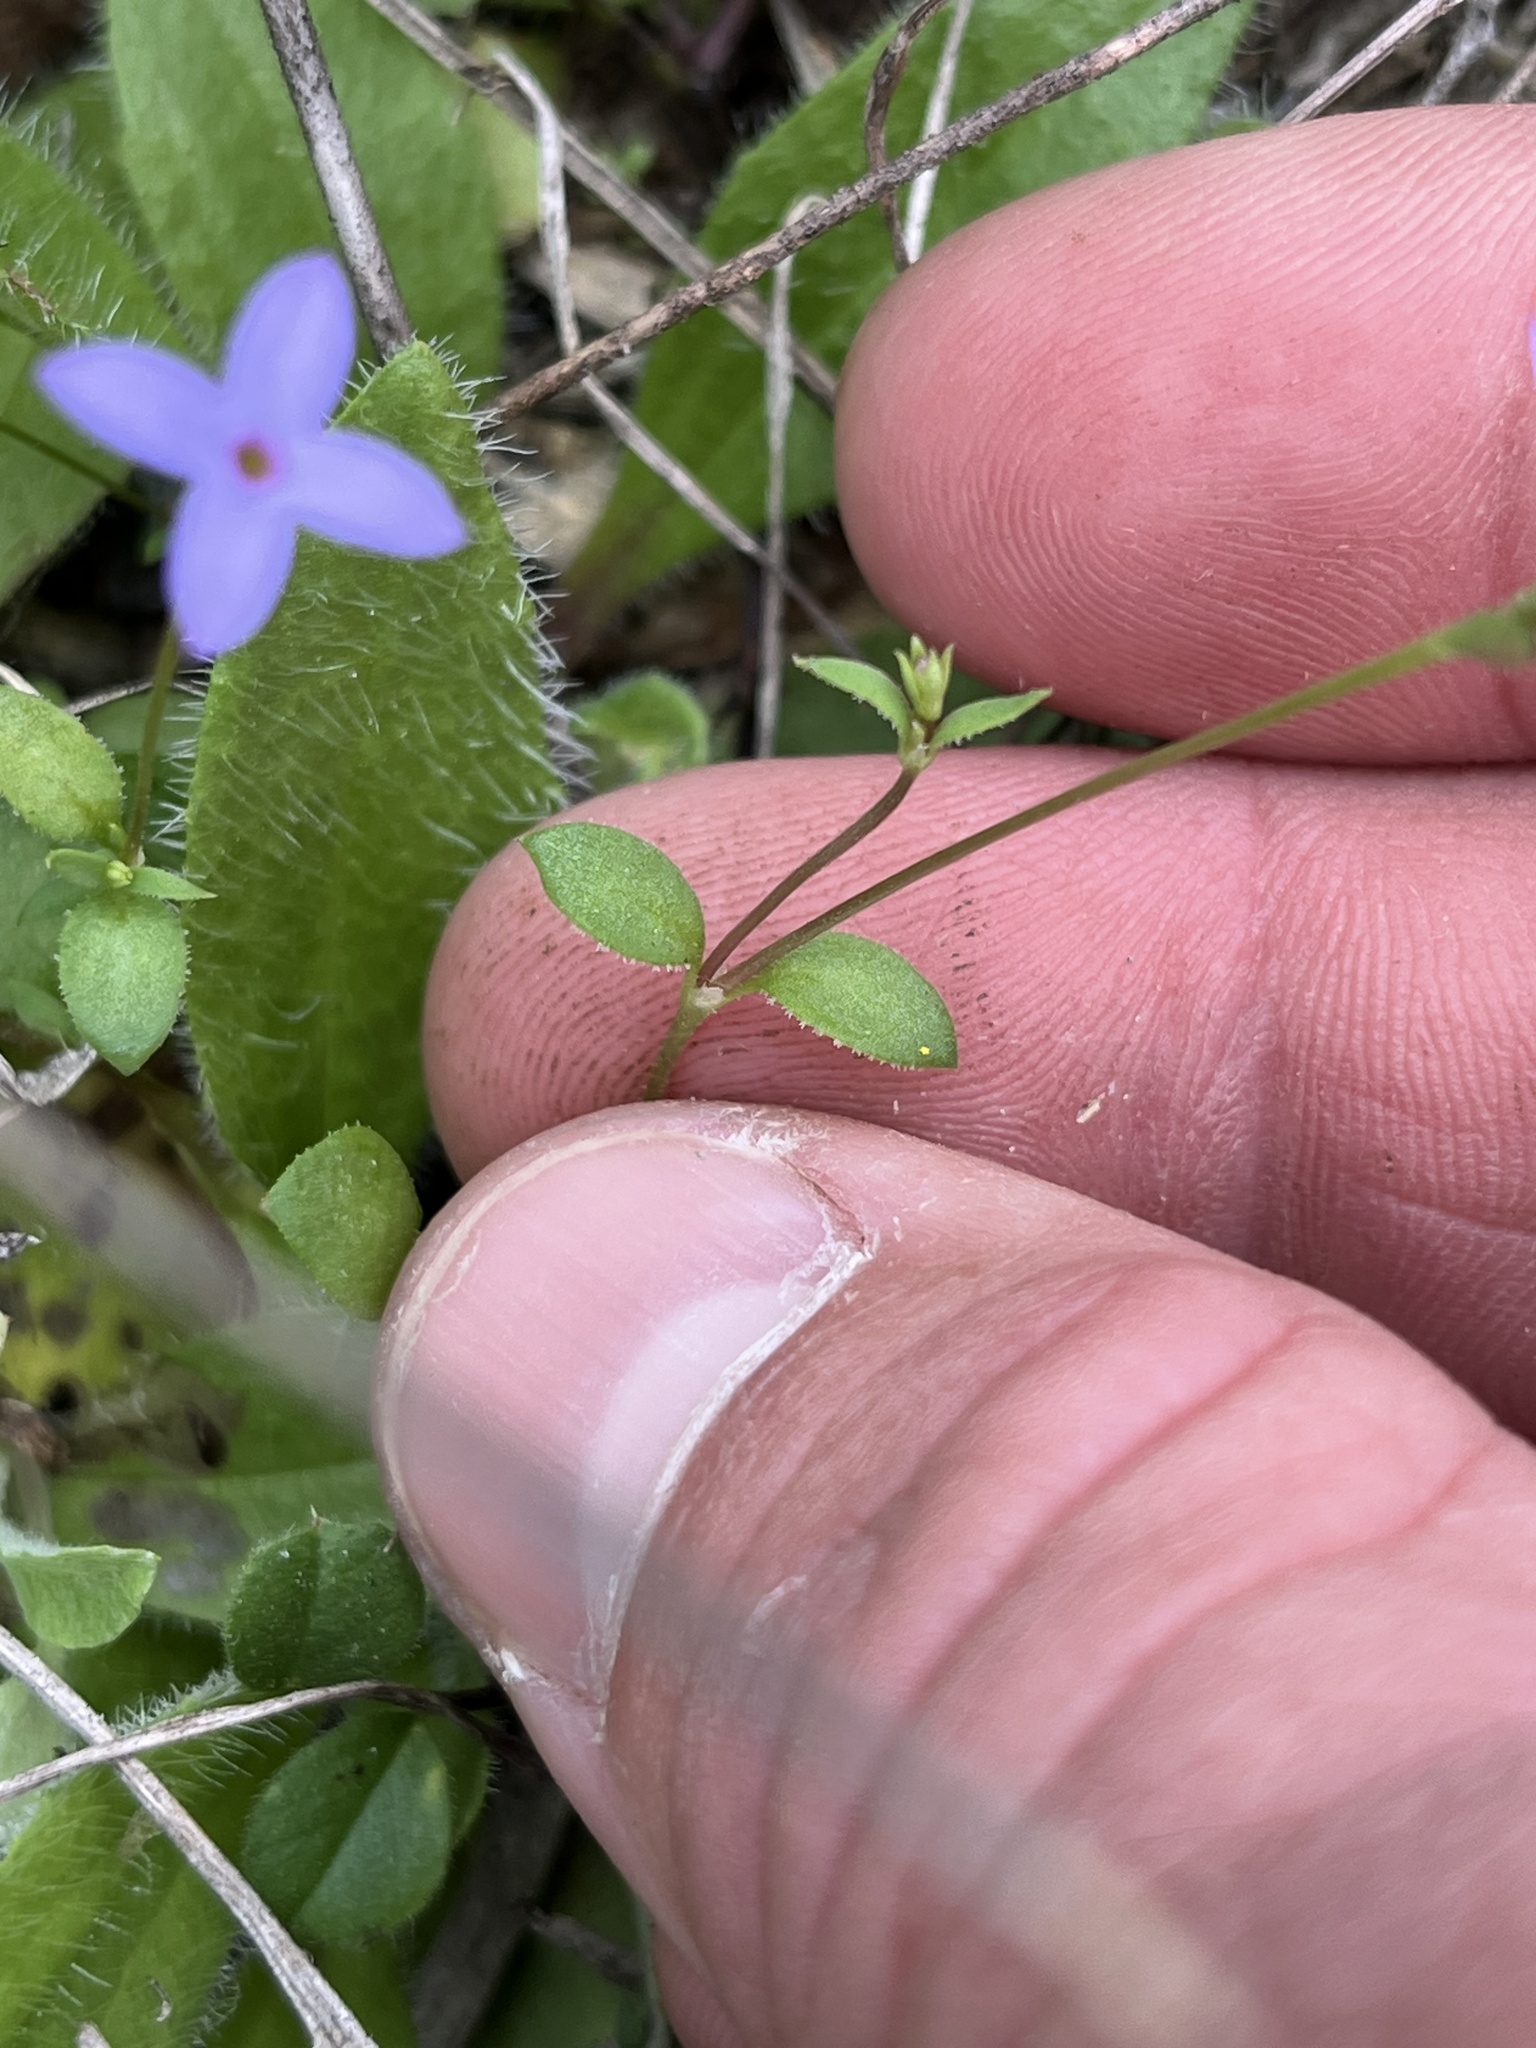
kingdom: Plantae
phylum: Tracheophyta
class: Magnoliopsida
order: Gentianales
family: Rubiaceae
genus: Houstonia
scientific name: Houstonia pusilla
